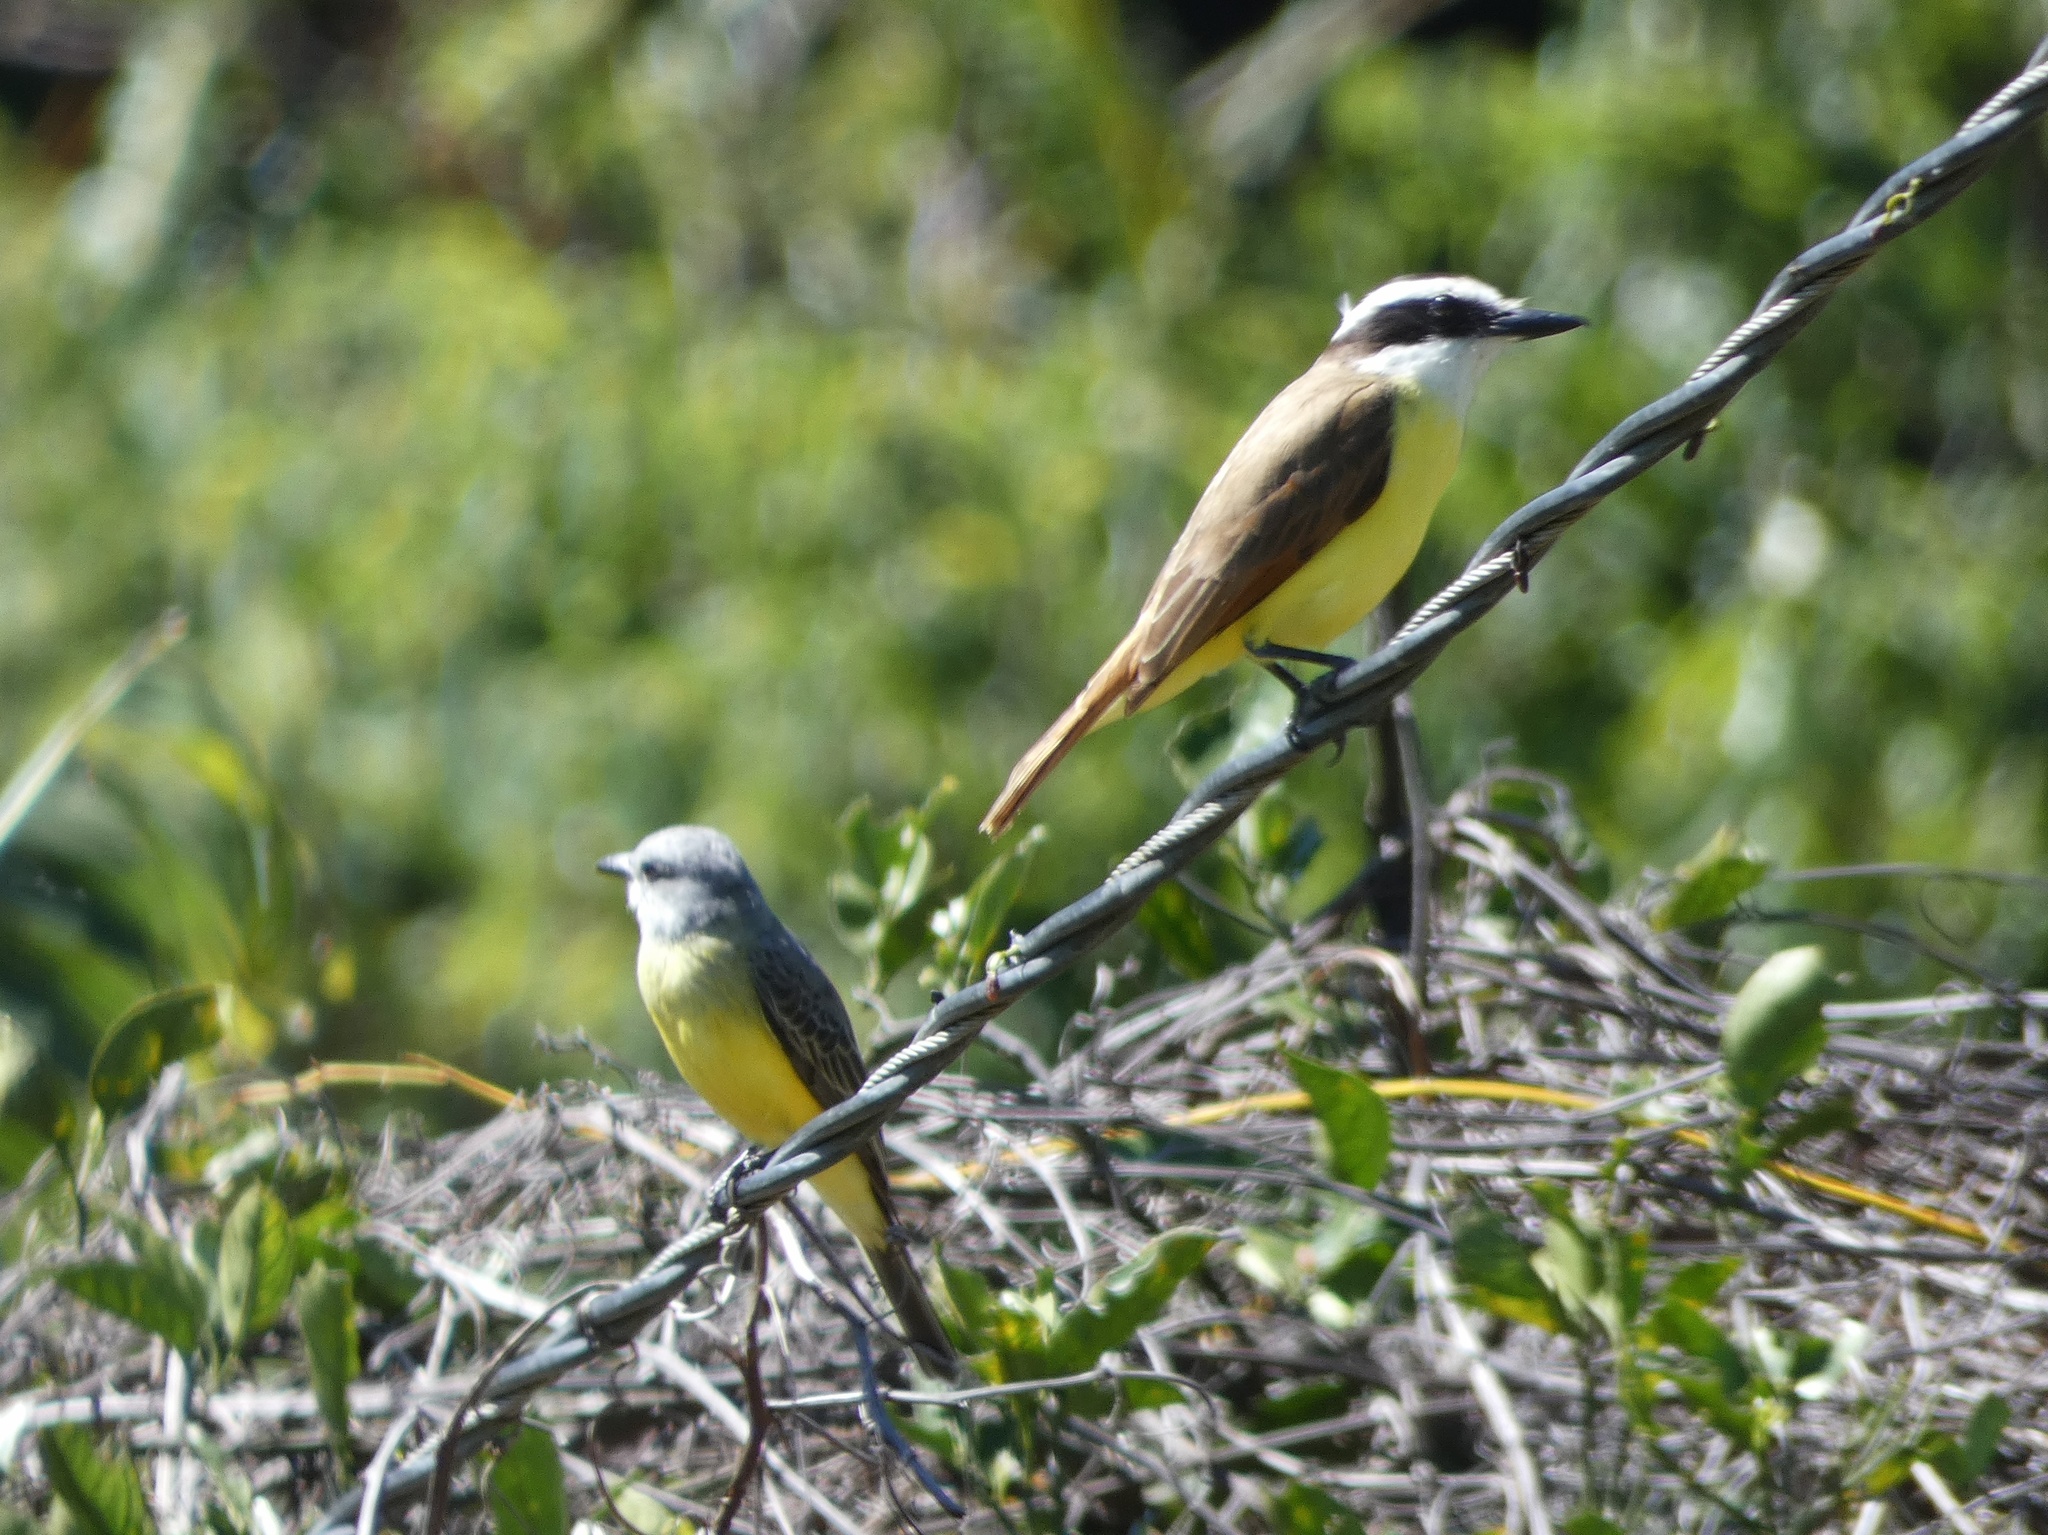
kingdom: Animalia
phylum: Chordata
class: Aves
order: Passeriformes
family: Tyrannidae
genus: Tyrannus
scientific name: Tyrannus melancholicus
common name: Tropical kingbird
